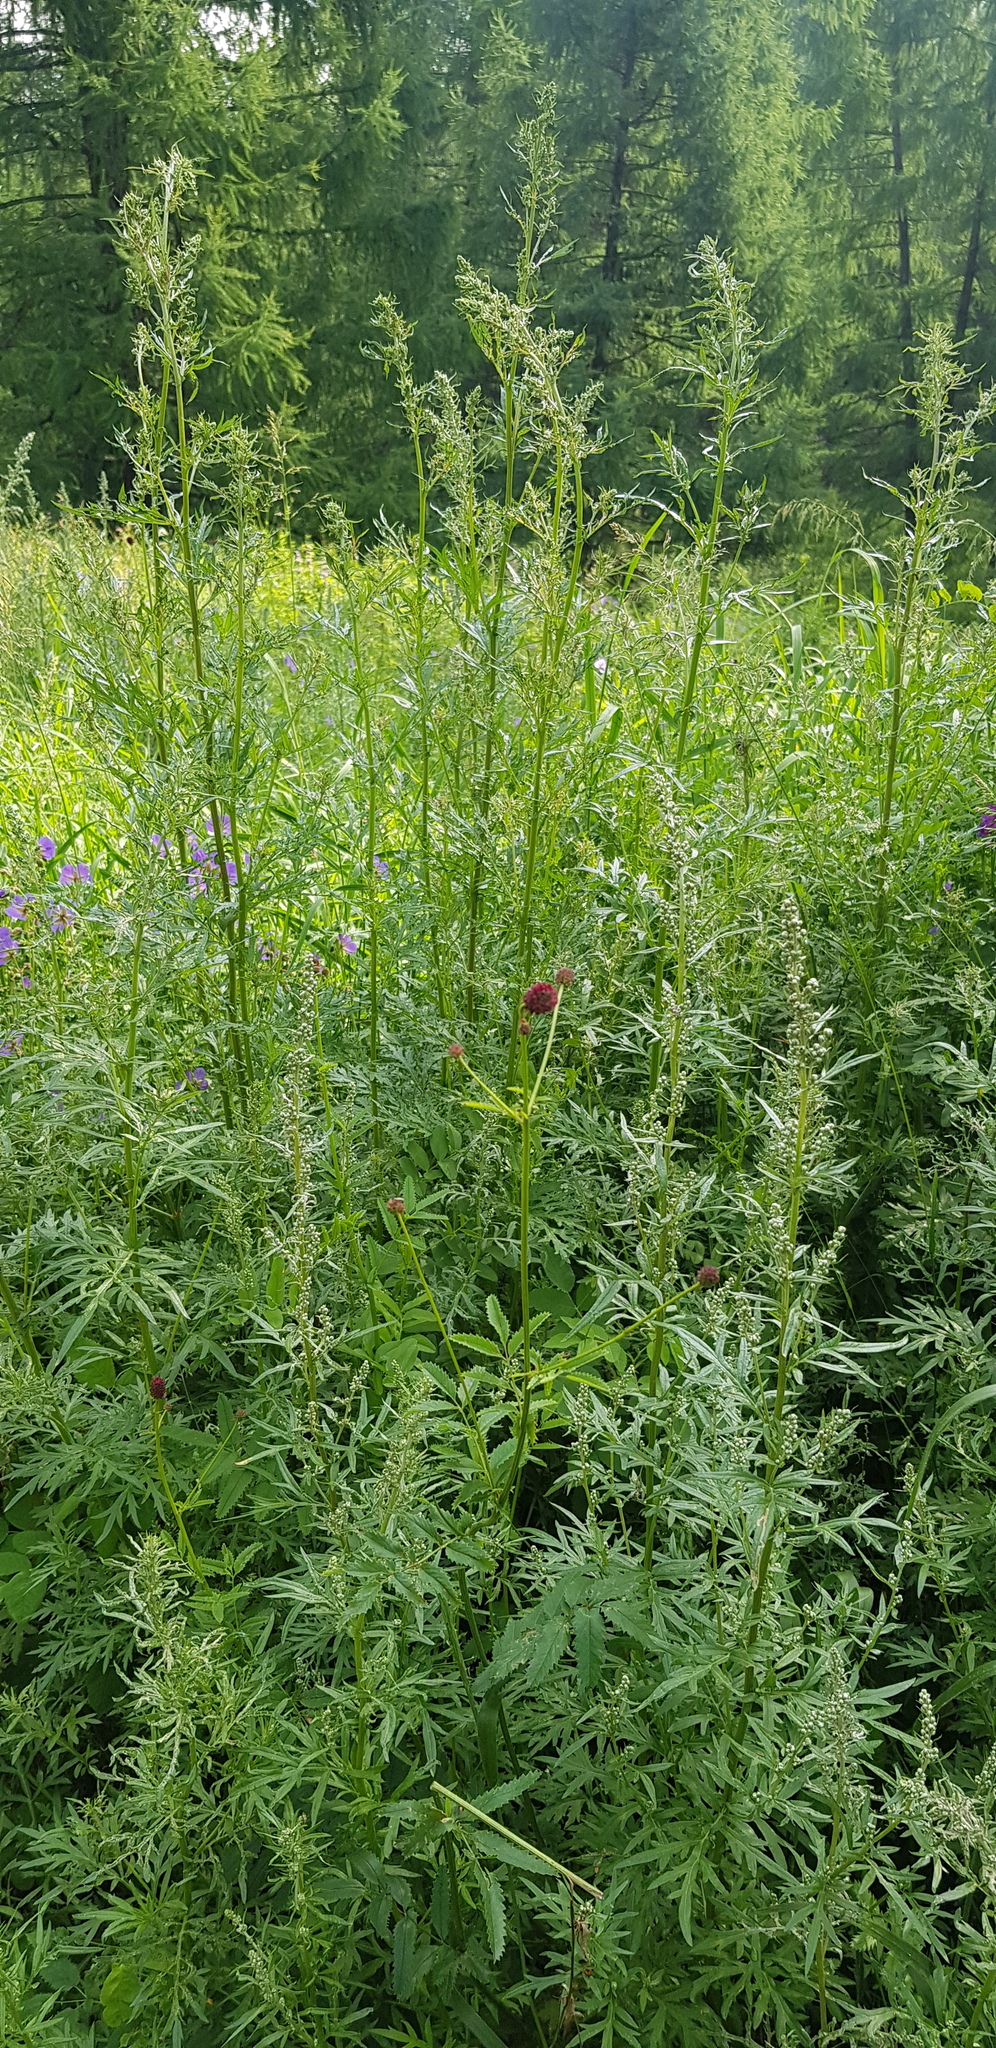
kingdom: Plantae
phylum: Tracheophyta
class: Magnoliopsida
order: Asterales
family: Asteraceae
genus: Artemisia
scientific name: Artemisia sieversiana
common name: Sieversian wormwood
